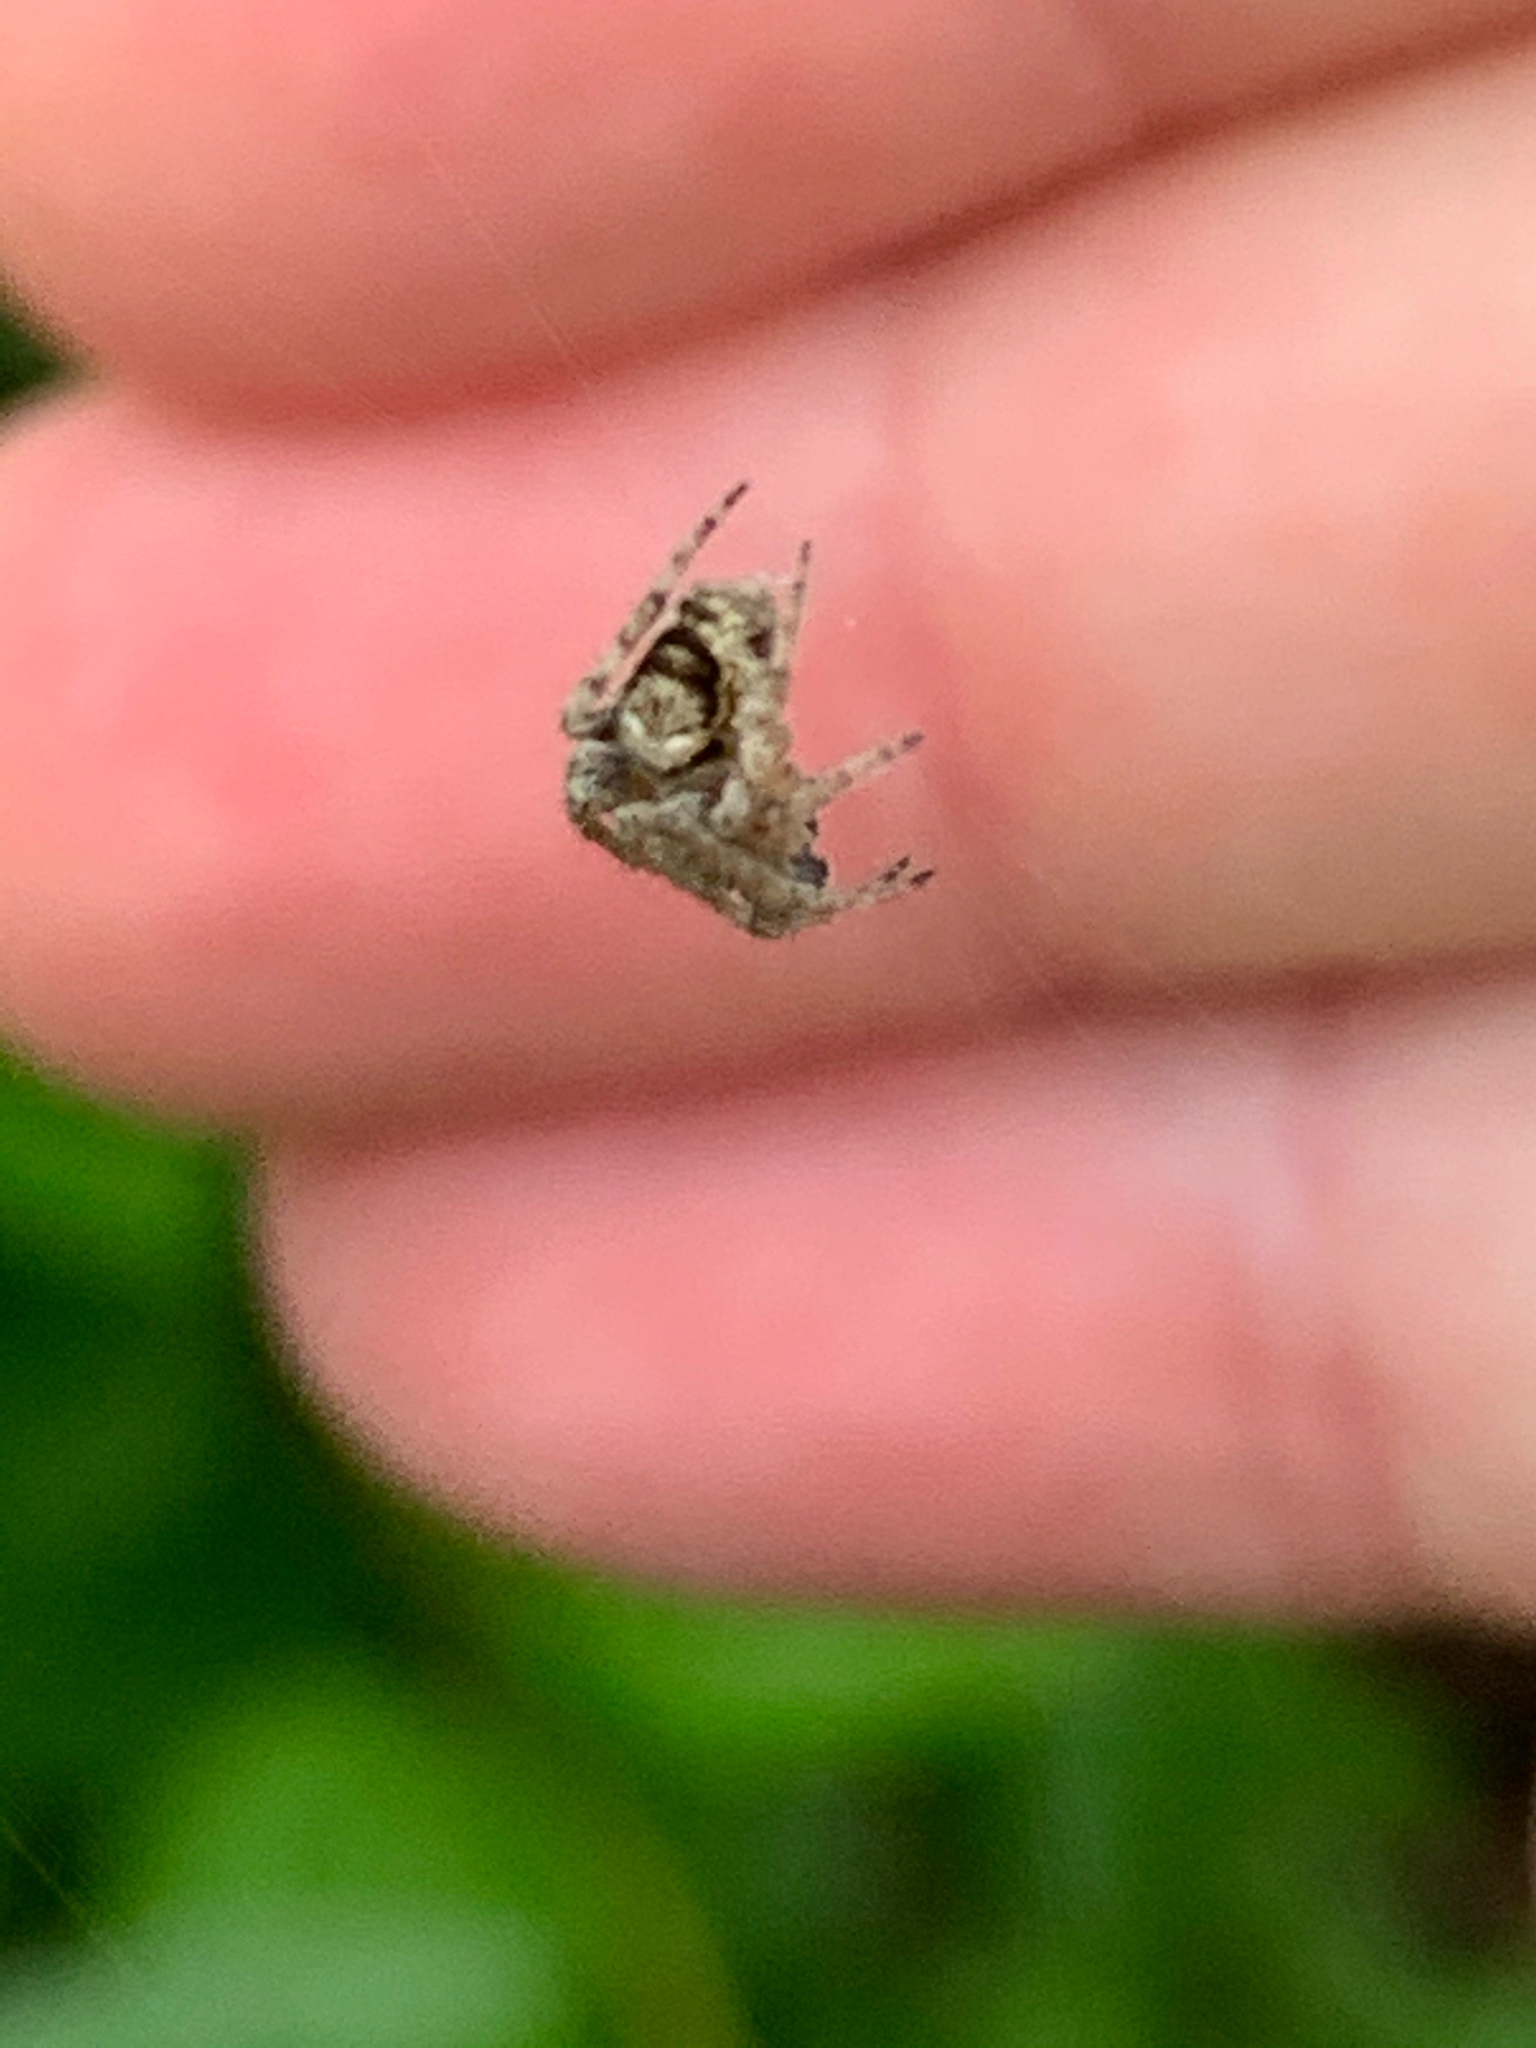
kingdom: Animalia
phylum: Arthropoda
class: Arachnida
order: Araneae
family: Araneidae
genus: Eustala
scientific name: Eustala
